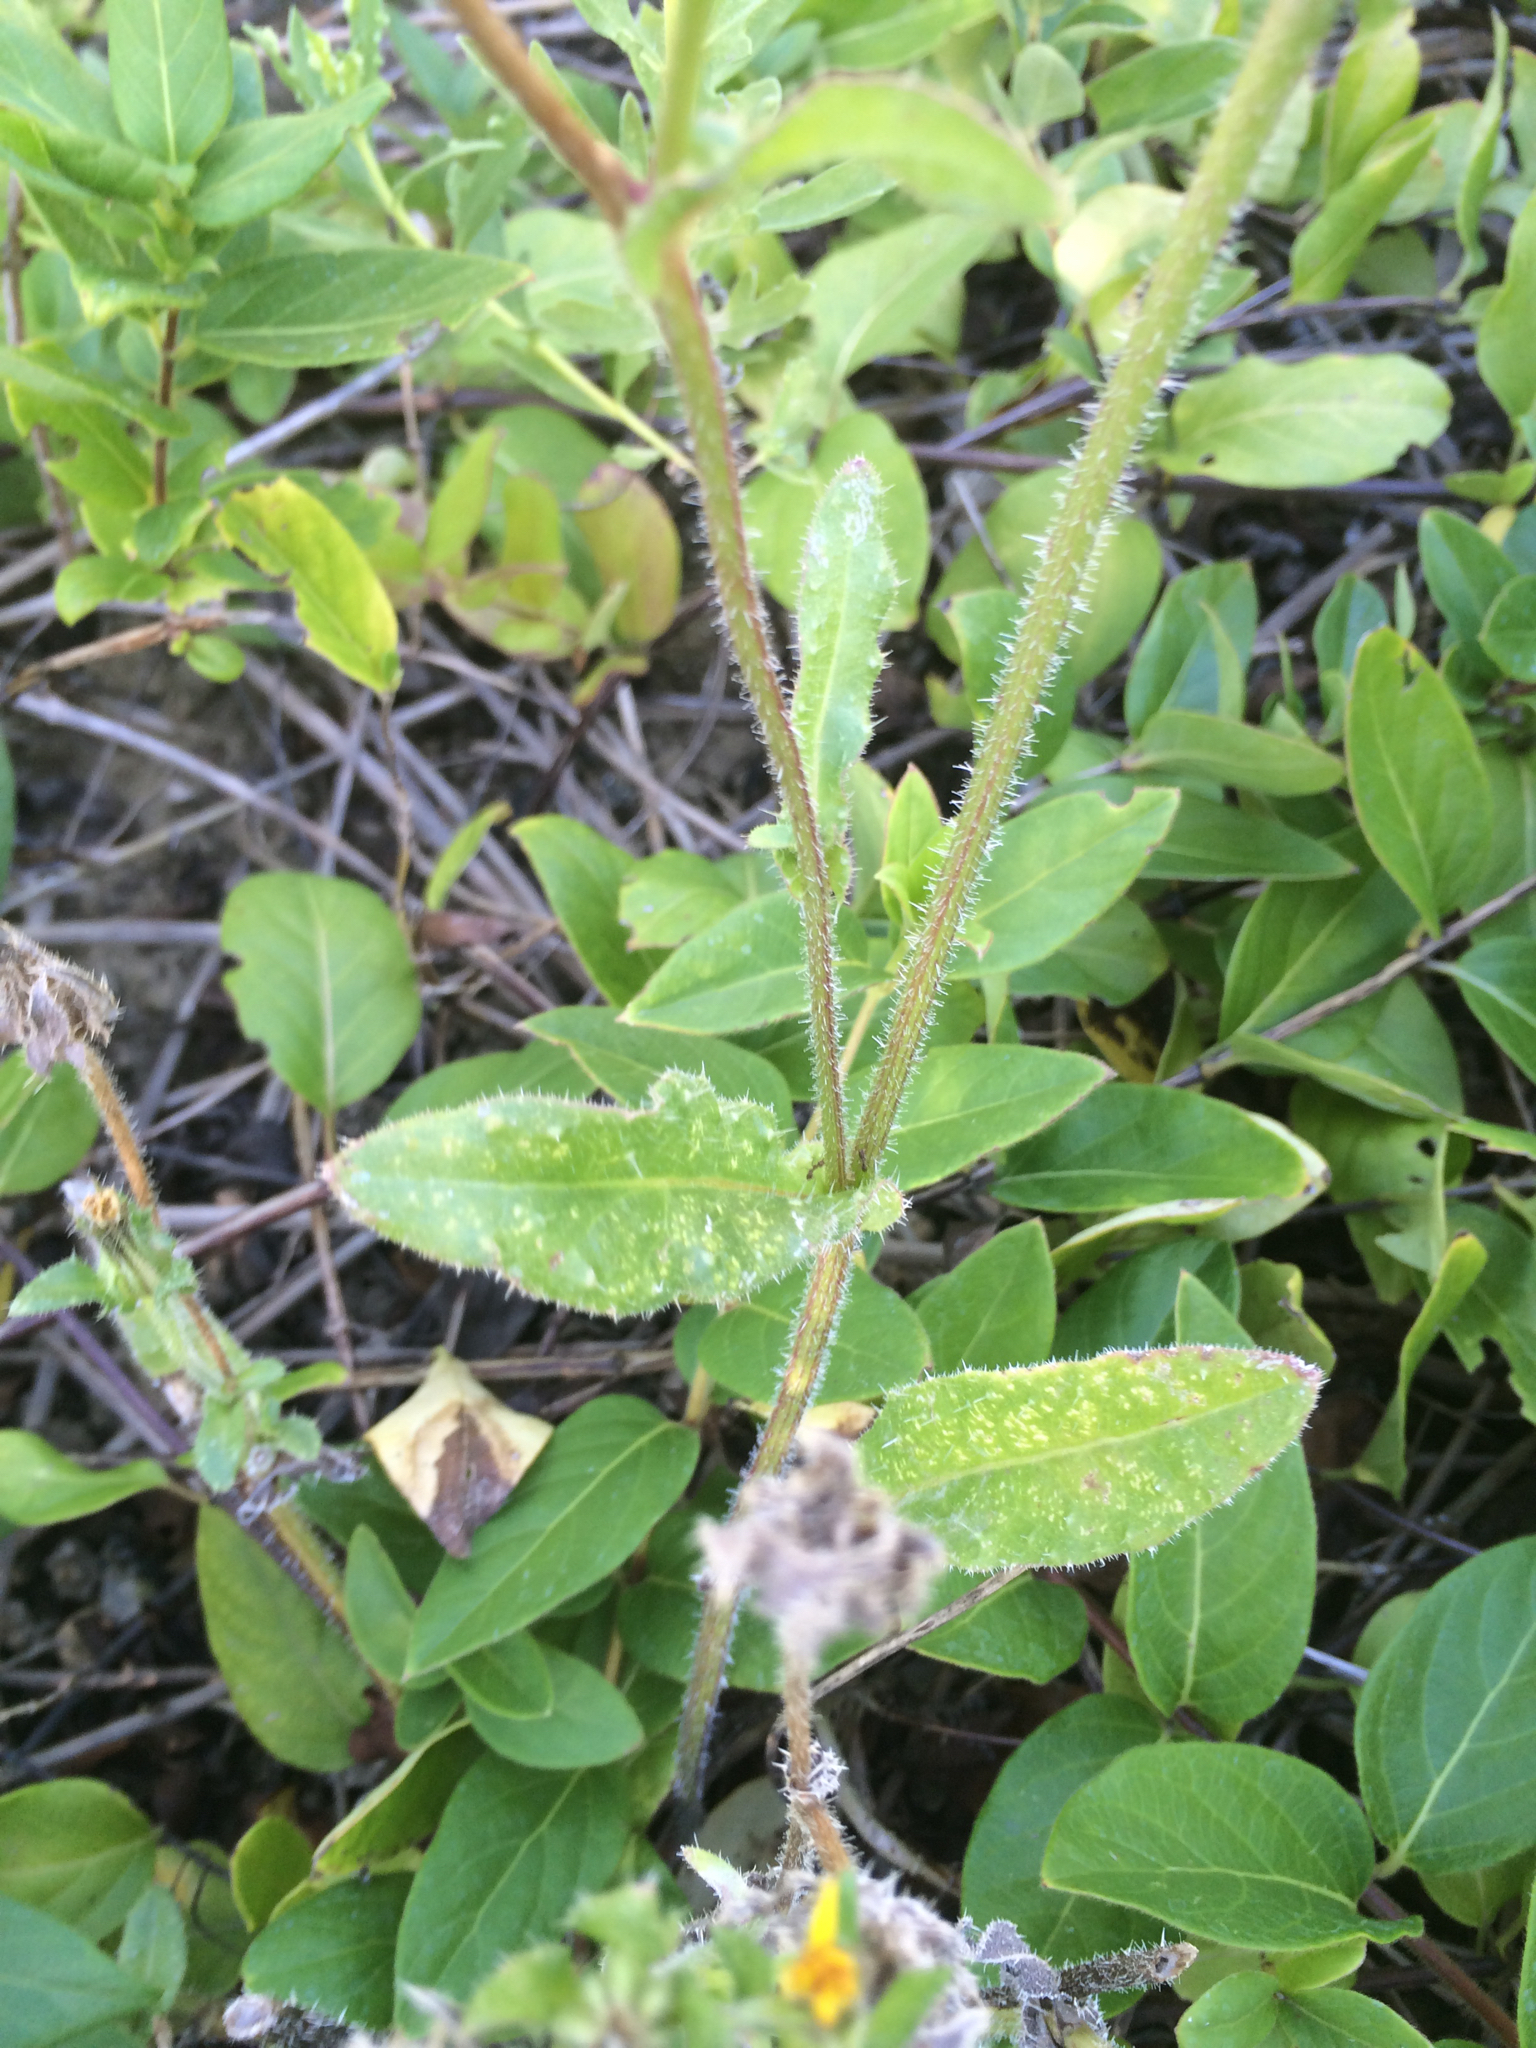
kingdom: Plantae
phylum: Tracheophyta
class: Magnoliopsida
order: Asterales
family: Asteraceae
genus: Helminthotheca
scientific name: Helminthotheca echioides
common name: Ox-tongue
